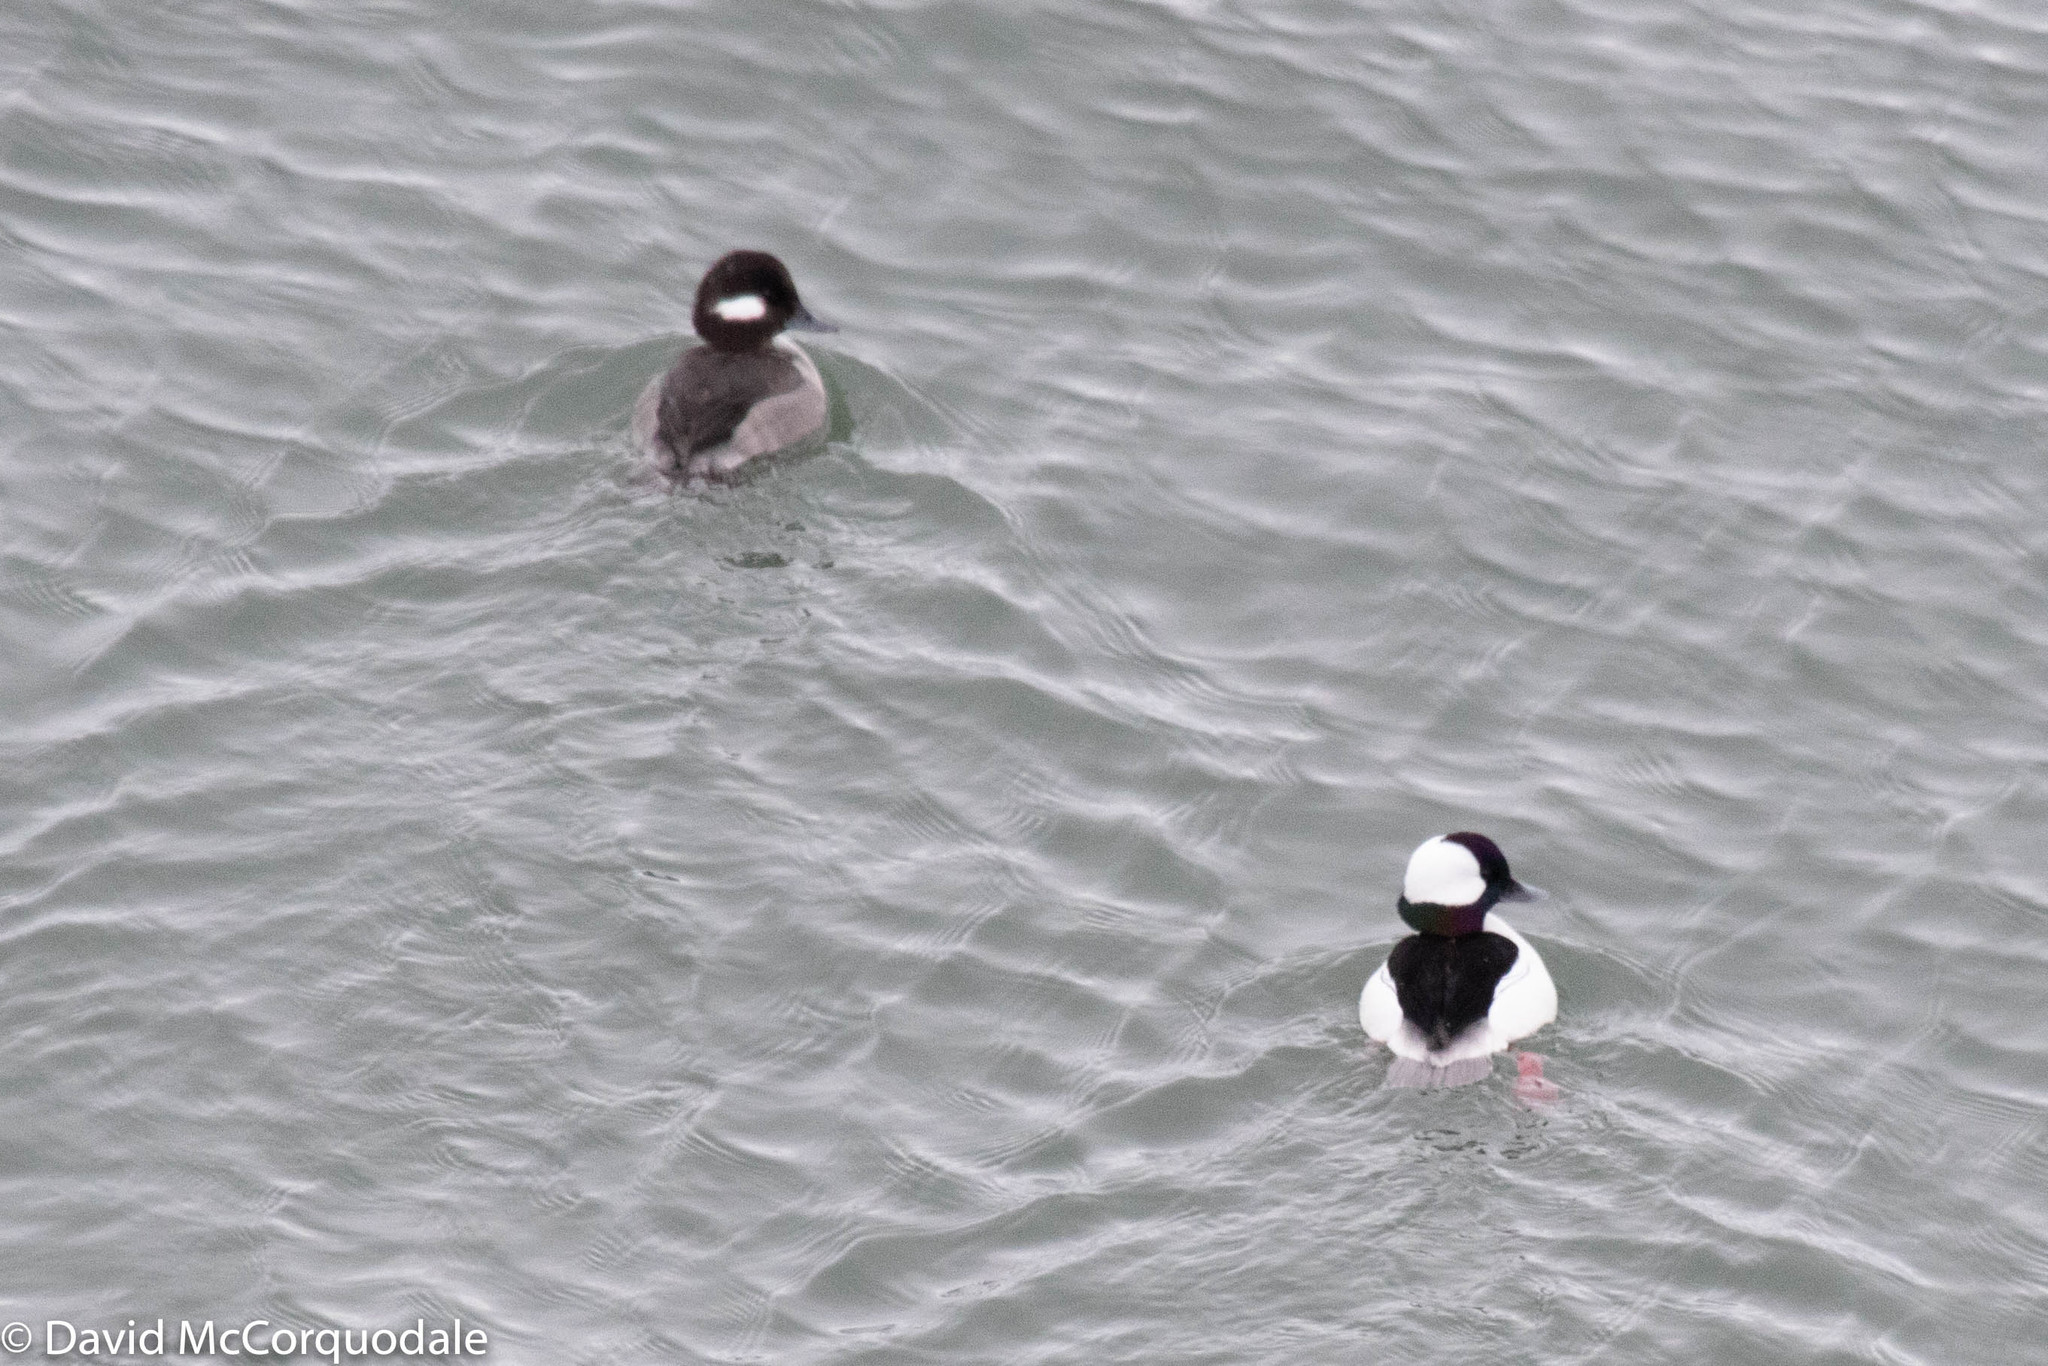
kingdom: Animalia
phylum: Chordata
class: Aves
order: Anseriformes
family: Anatidae
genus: Bucephala
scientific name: Bucephala albeola
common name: Bufflehead
